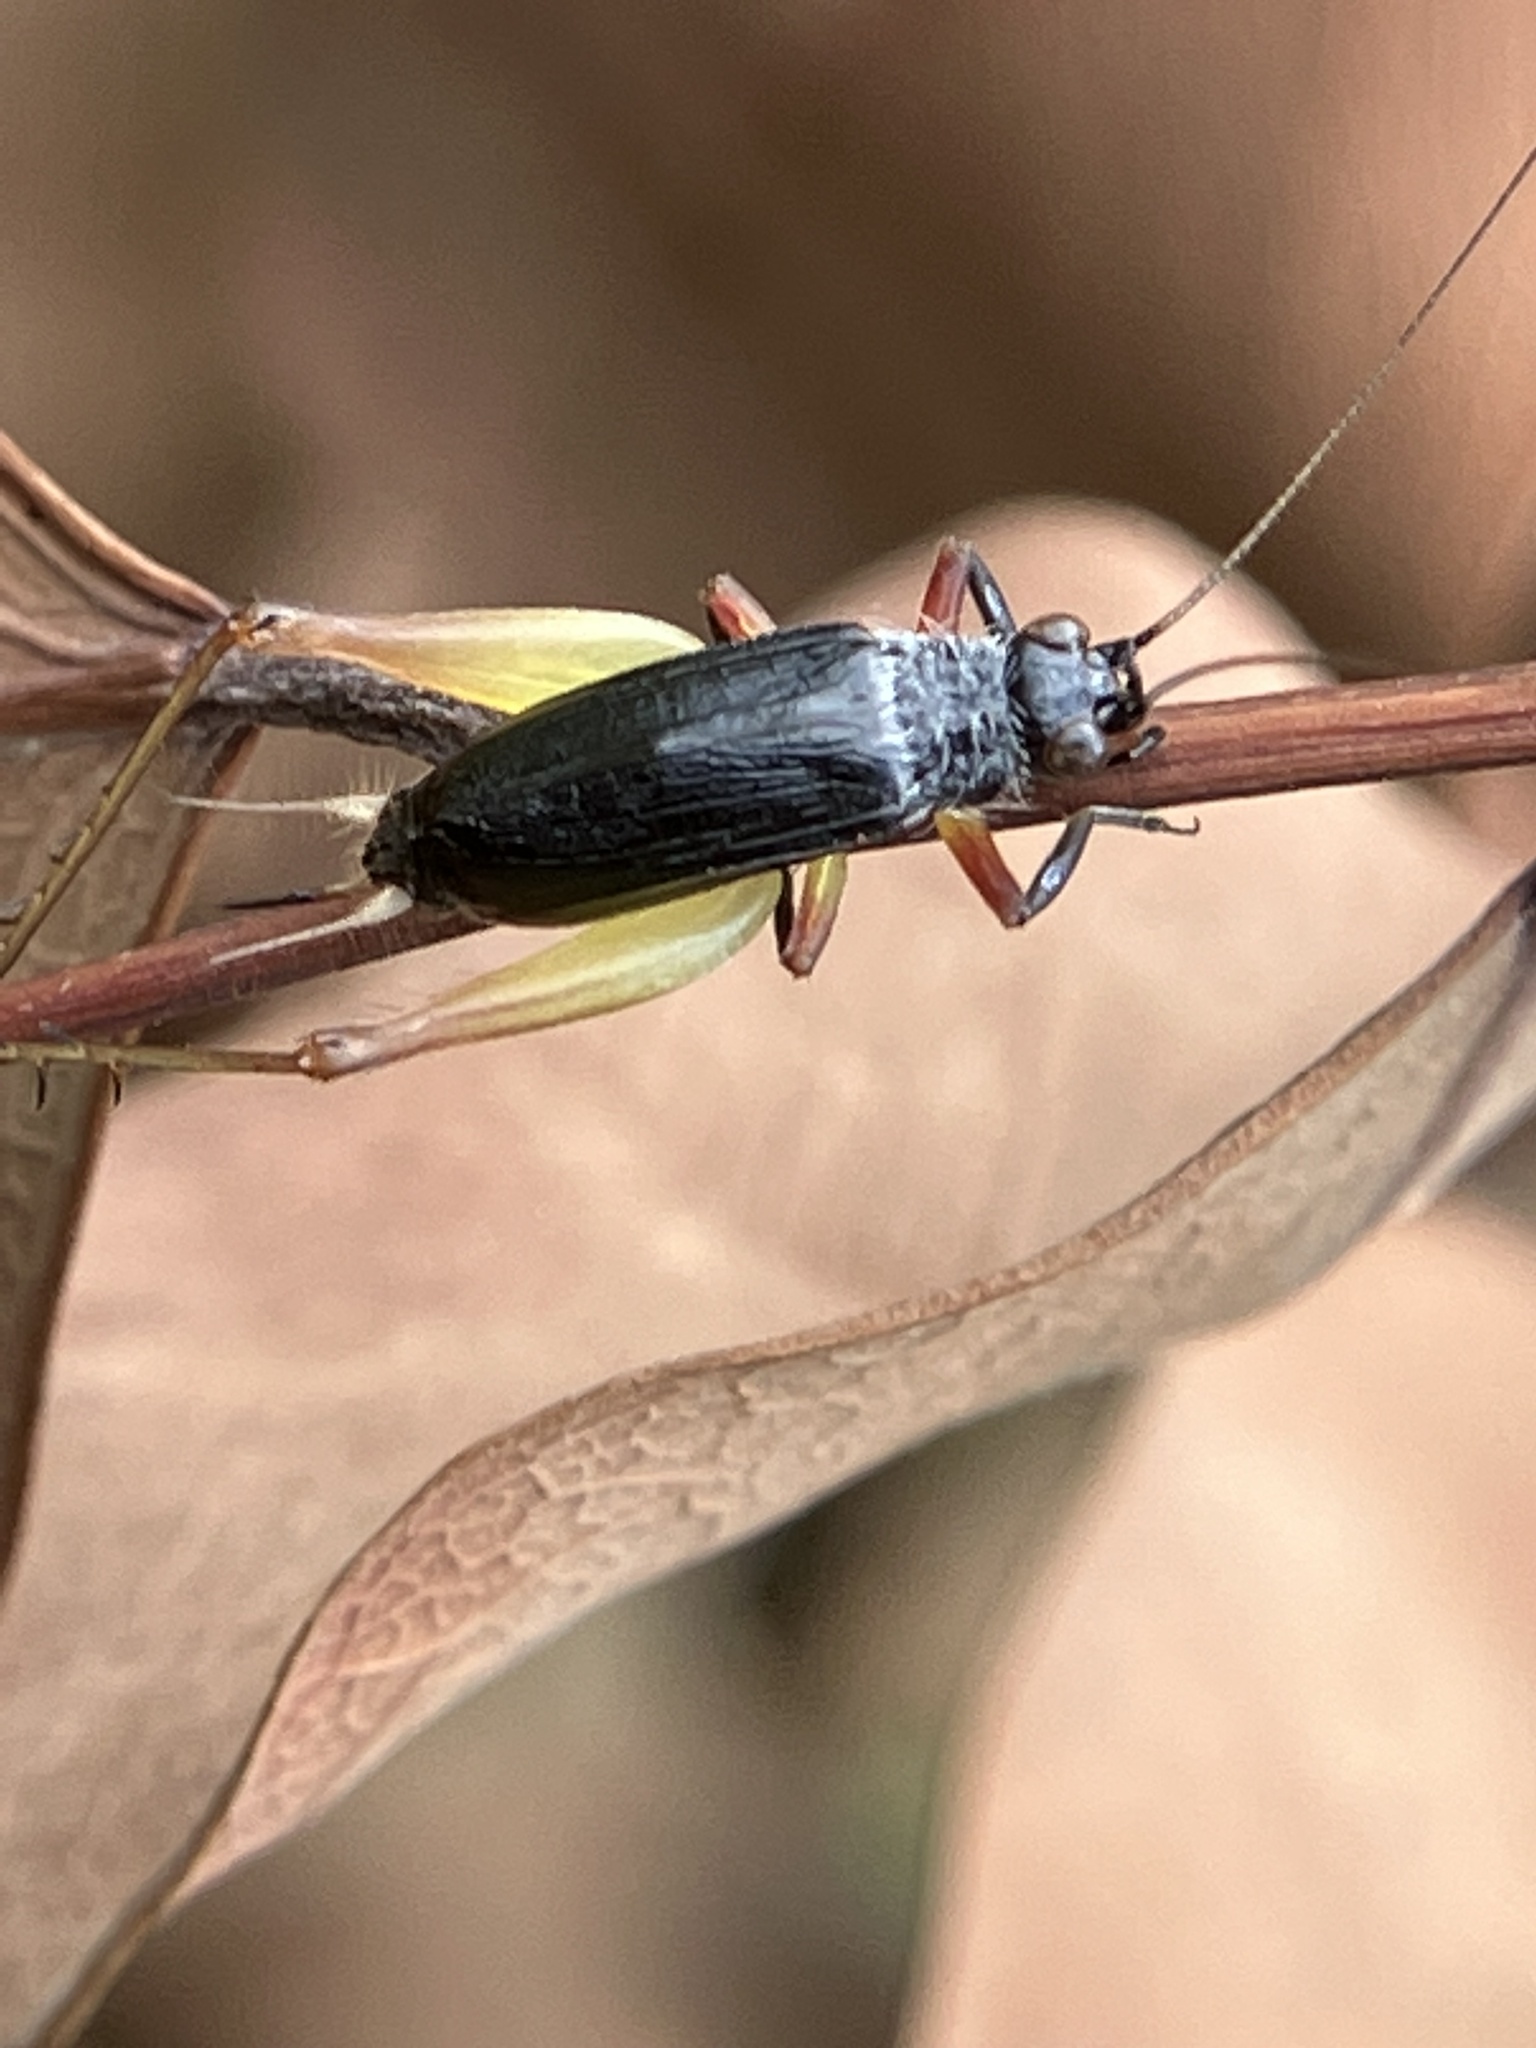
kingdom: Animalia
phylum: Arthropoda
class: Insecta
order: Orthoptera
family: Trigonidiidae
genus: Trigonidium
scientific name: Trigonidium cicindeloides
